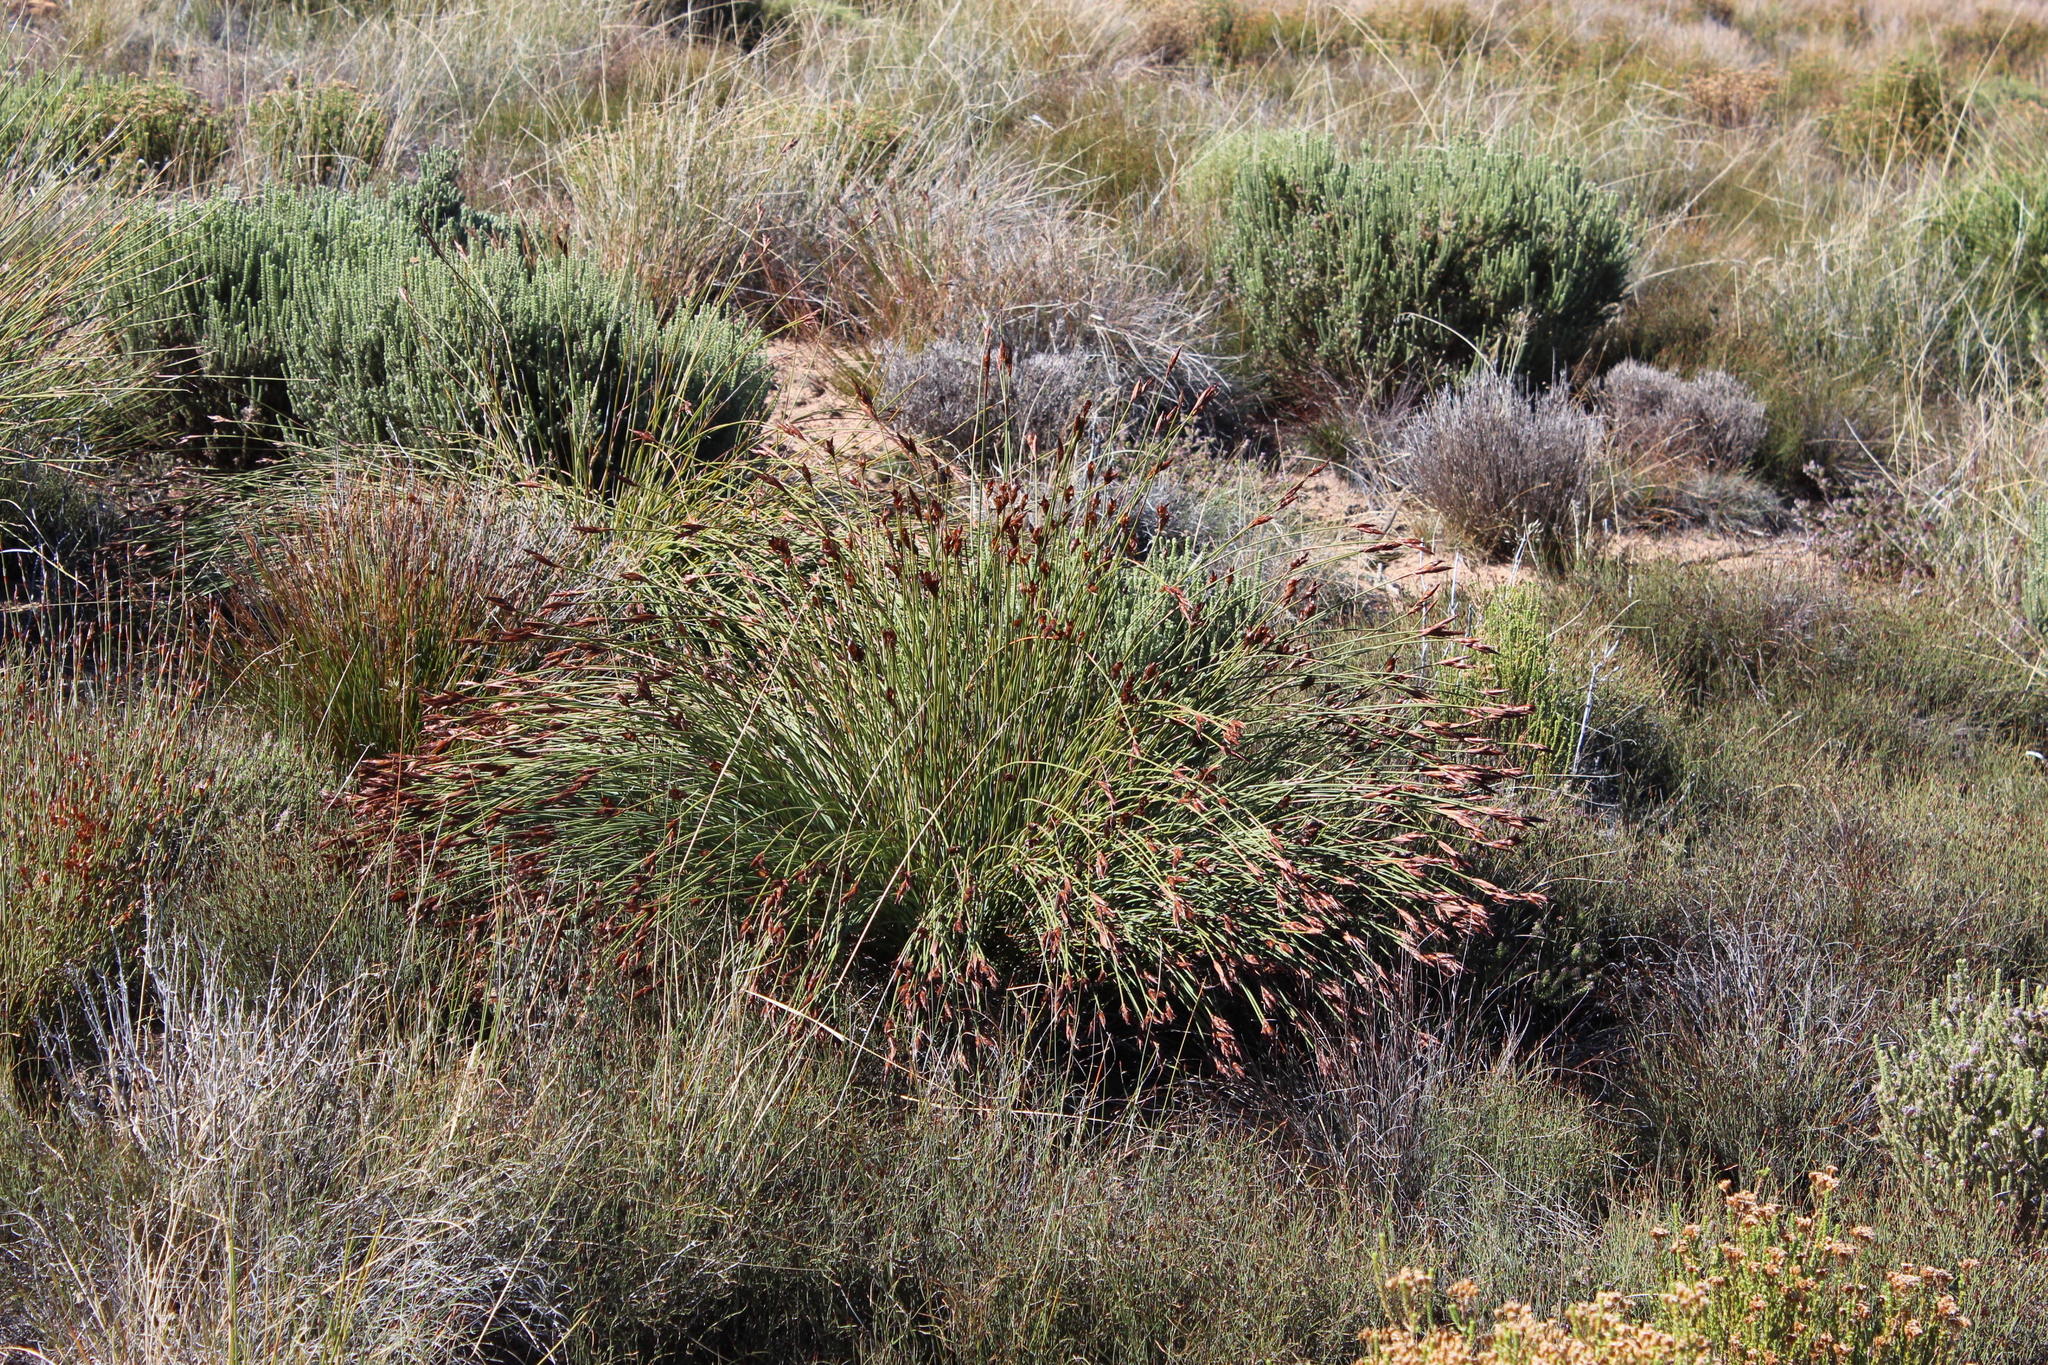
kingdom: Plantae
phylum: Tracheophyta
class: Liliopsida
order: Poales
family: Restionaceae
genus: Cannomois
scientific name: Cannomois primosii
